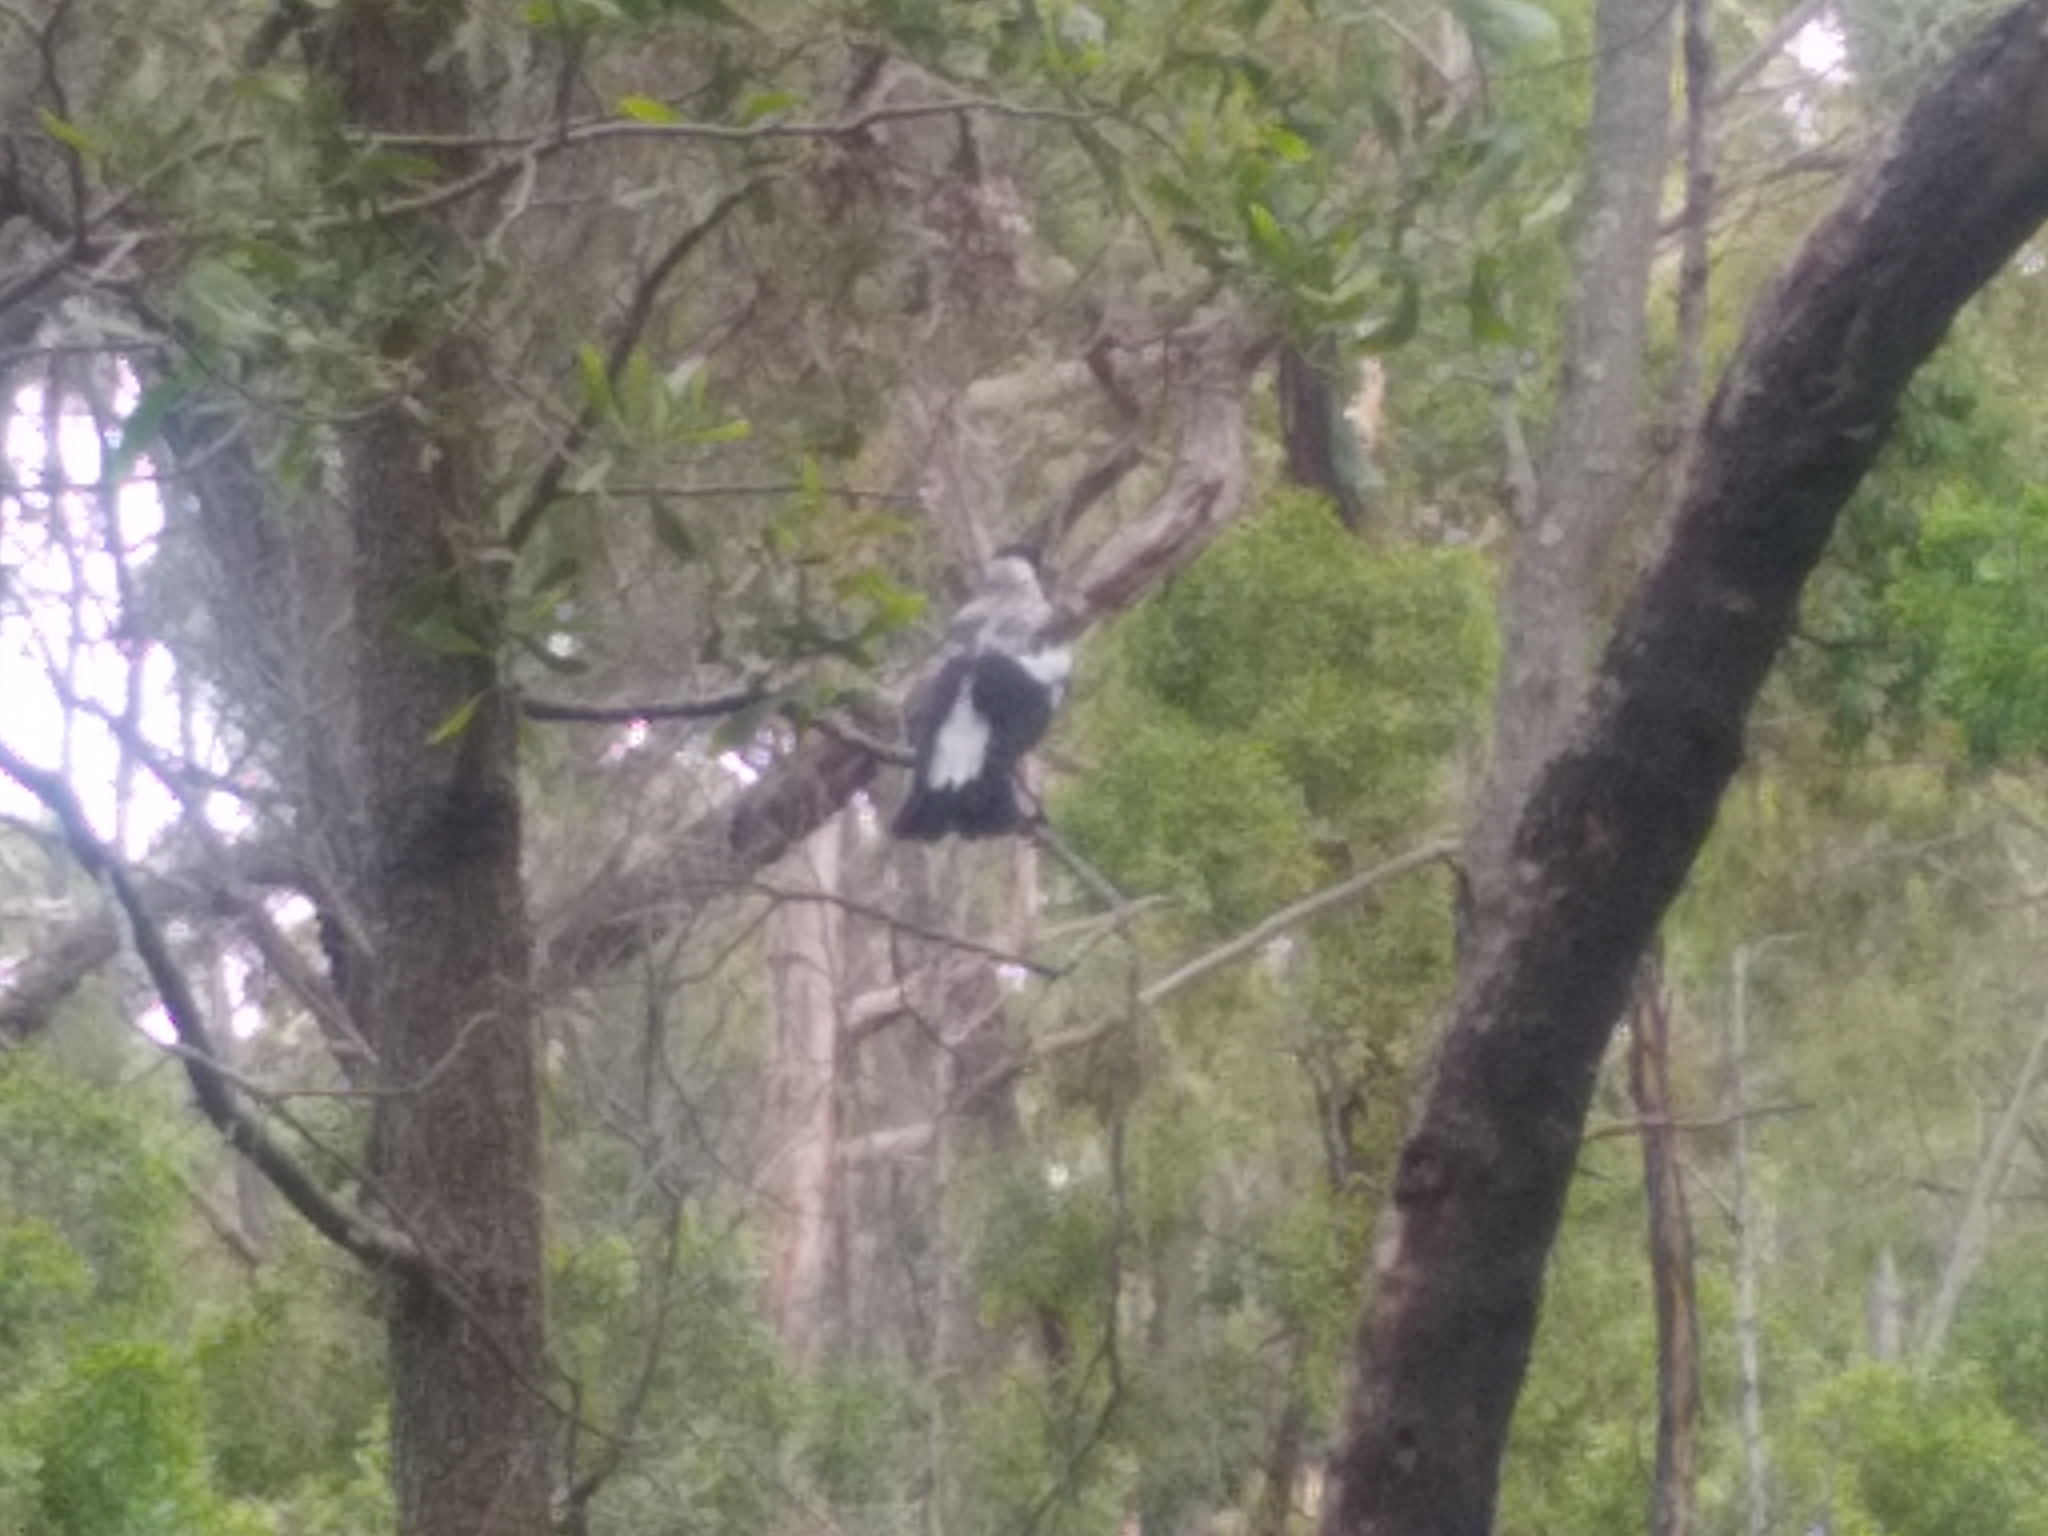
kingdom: Animalia
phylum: Chordata
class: Aves
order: Passeriformes
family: Cracticidae
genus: Gymnorhina
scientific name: Gymnorhina tibicen
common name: Australian magpie
